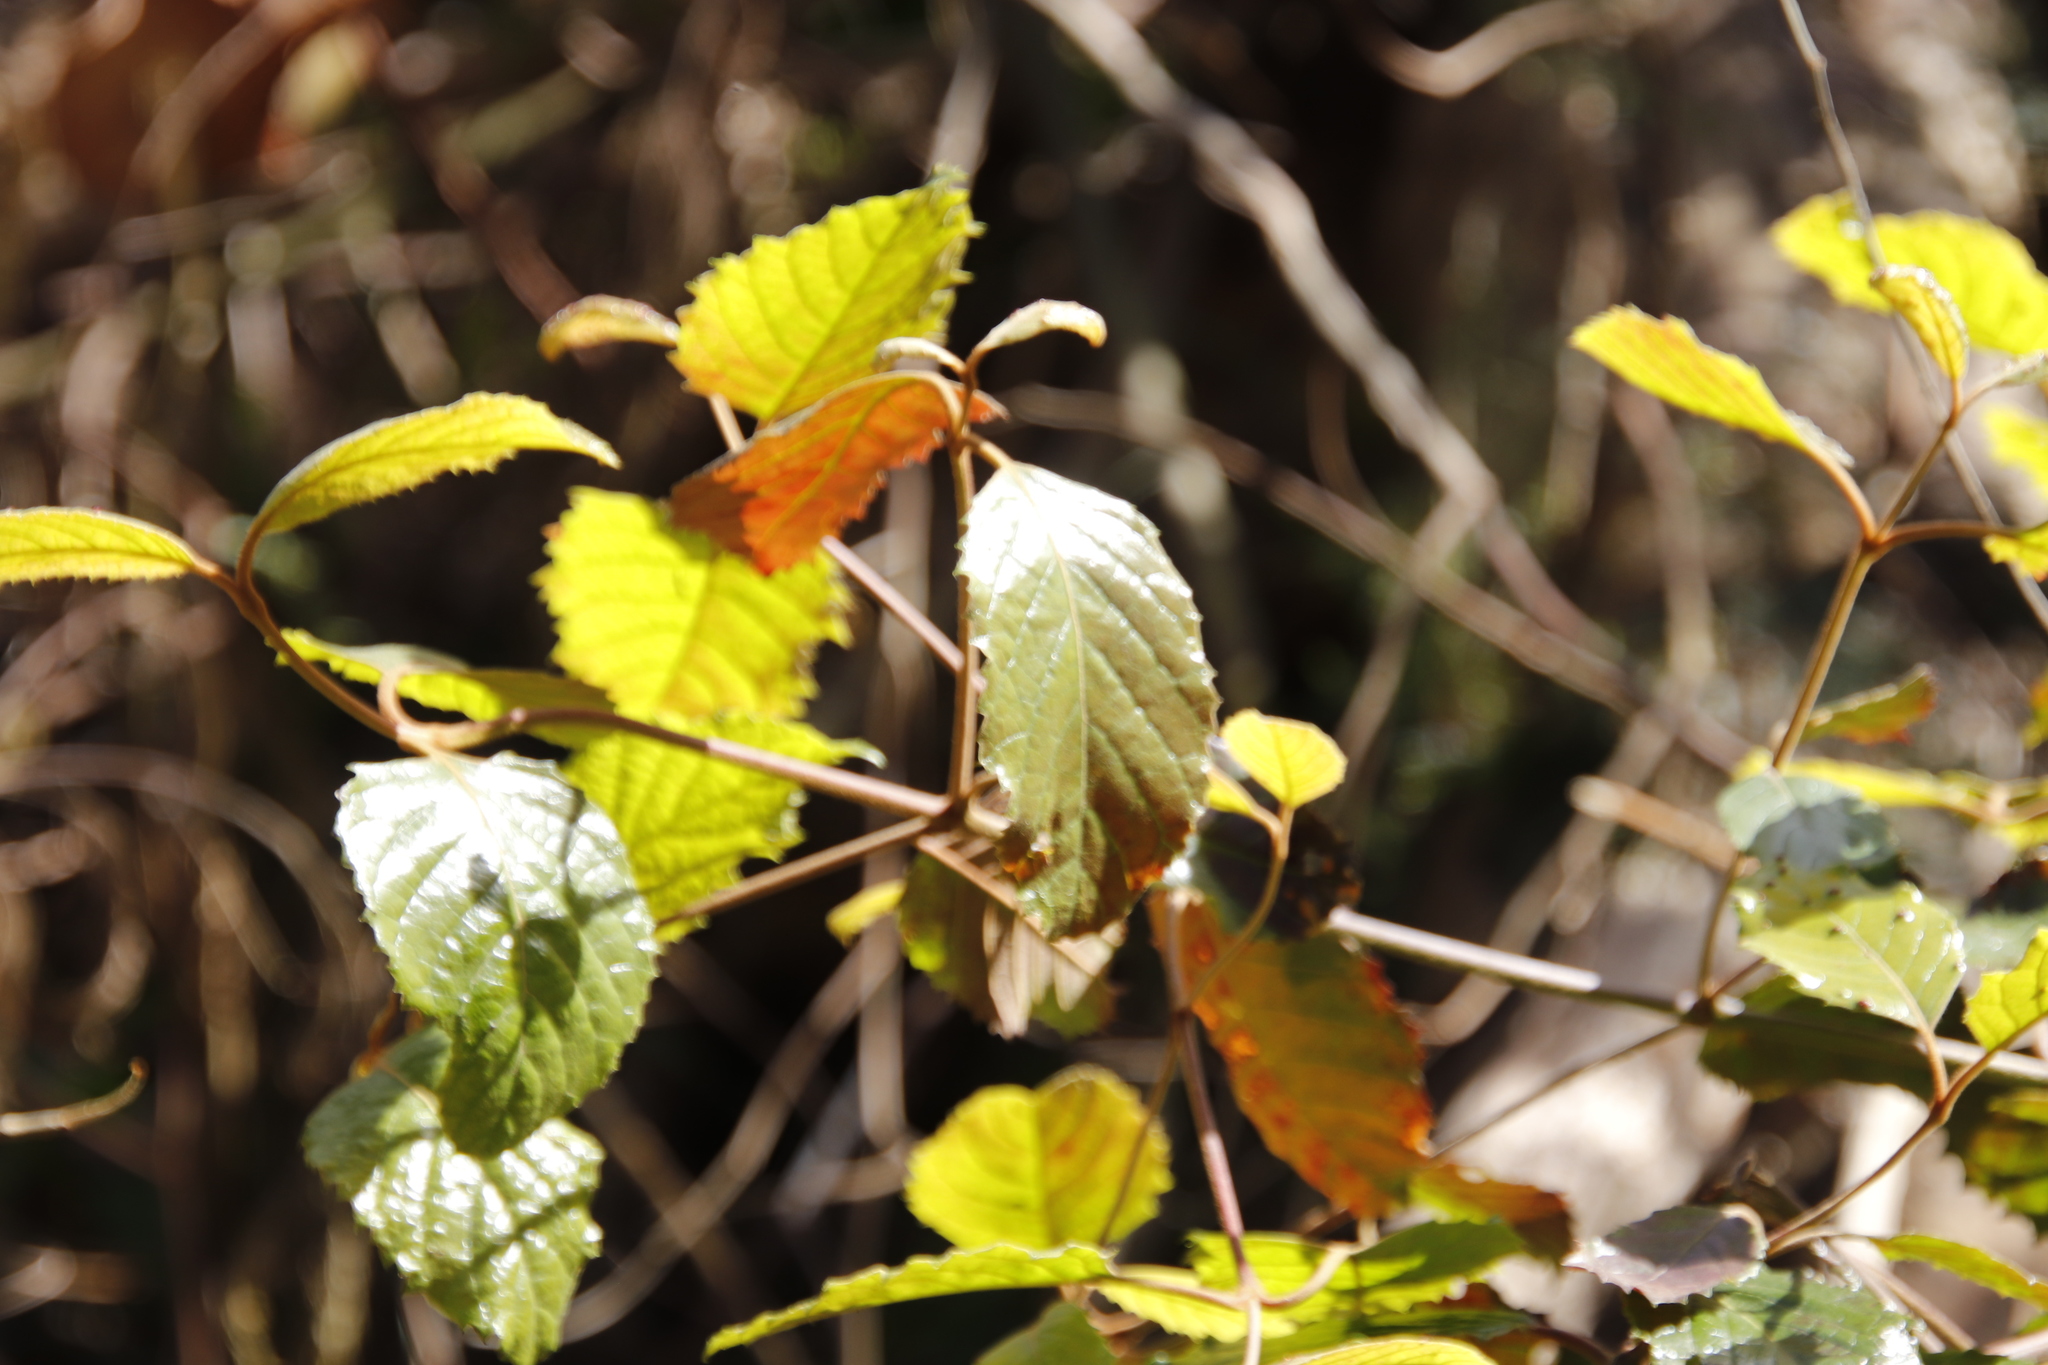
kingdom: Plantae
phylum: Tracheophyta
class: Magnoliopsida
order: Cornales
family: Curtisiaceae
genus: Curtisia
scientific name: Curtisia dentata
